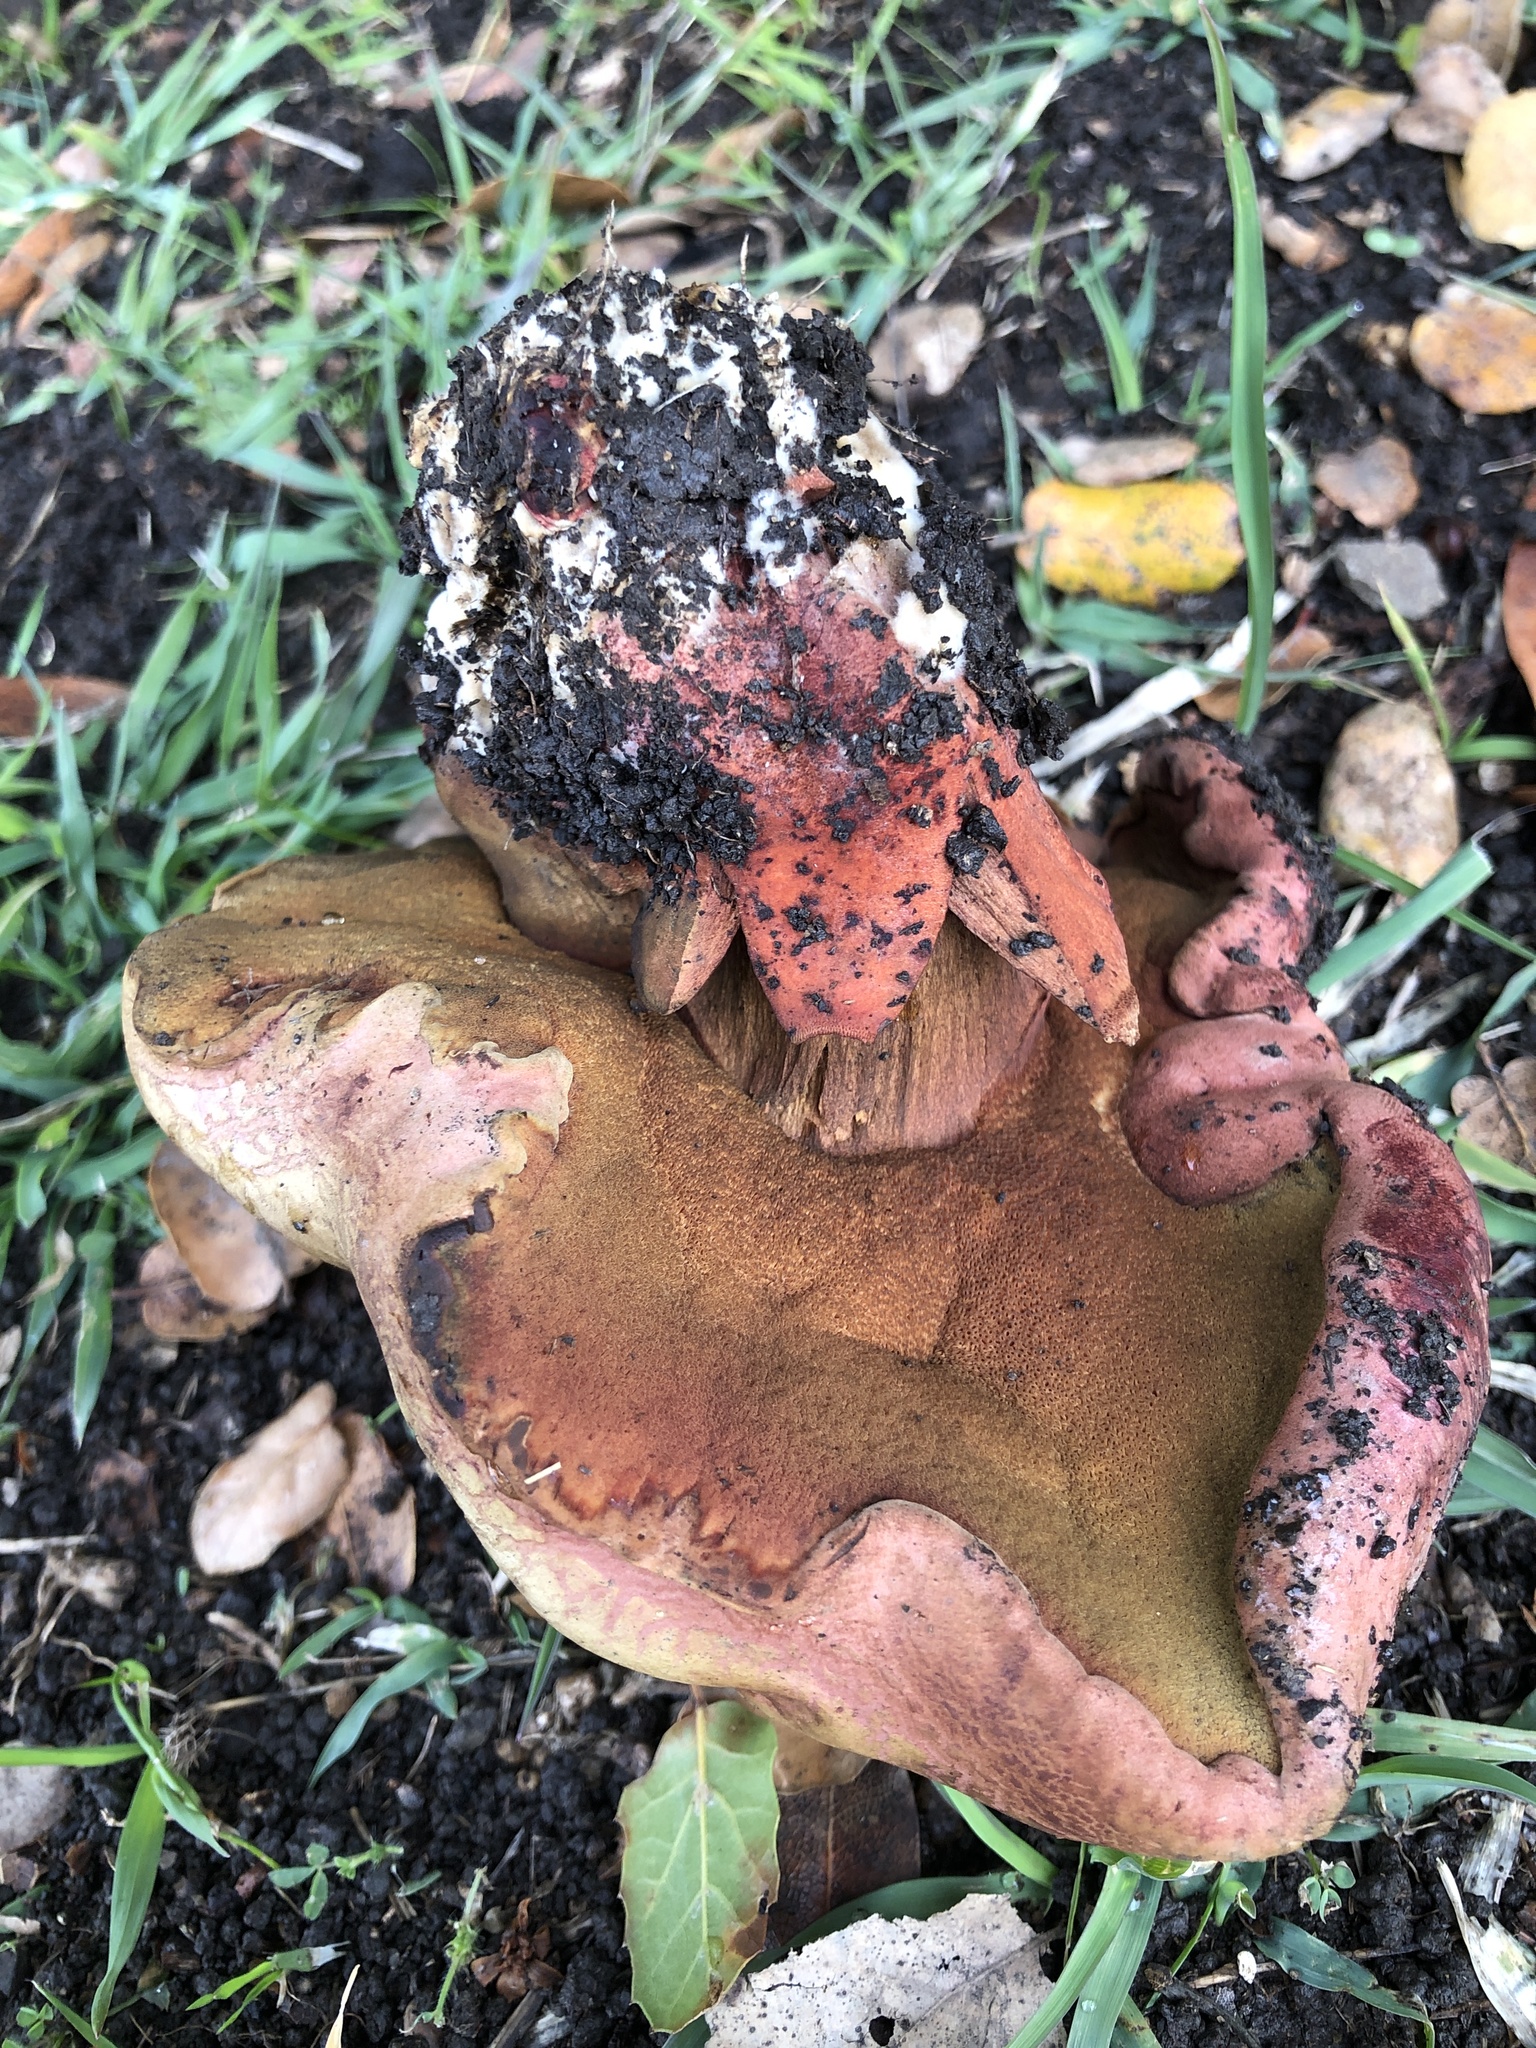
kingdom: Fungi
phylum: Basidiomycota
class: Agaricomycetes
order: Boletales
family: Boletaceae
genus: Suillellus
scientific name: Suillellus amygdalinus
